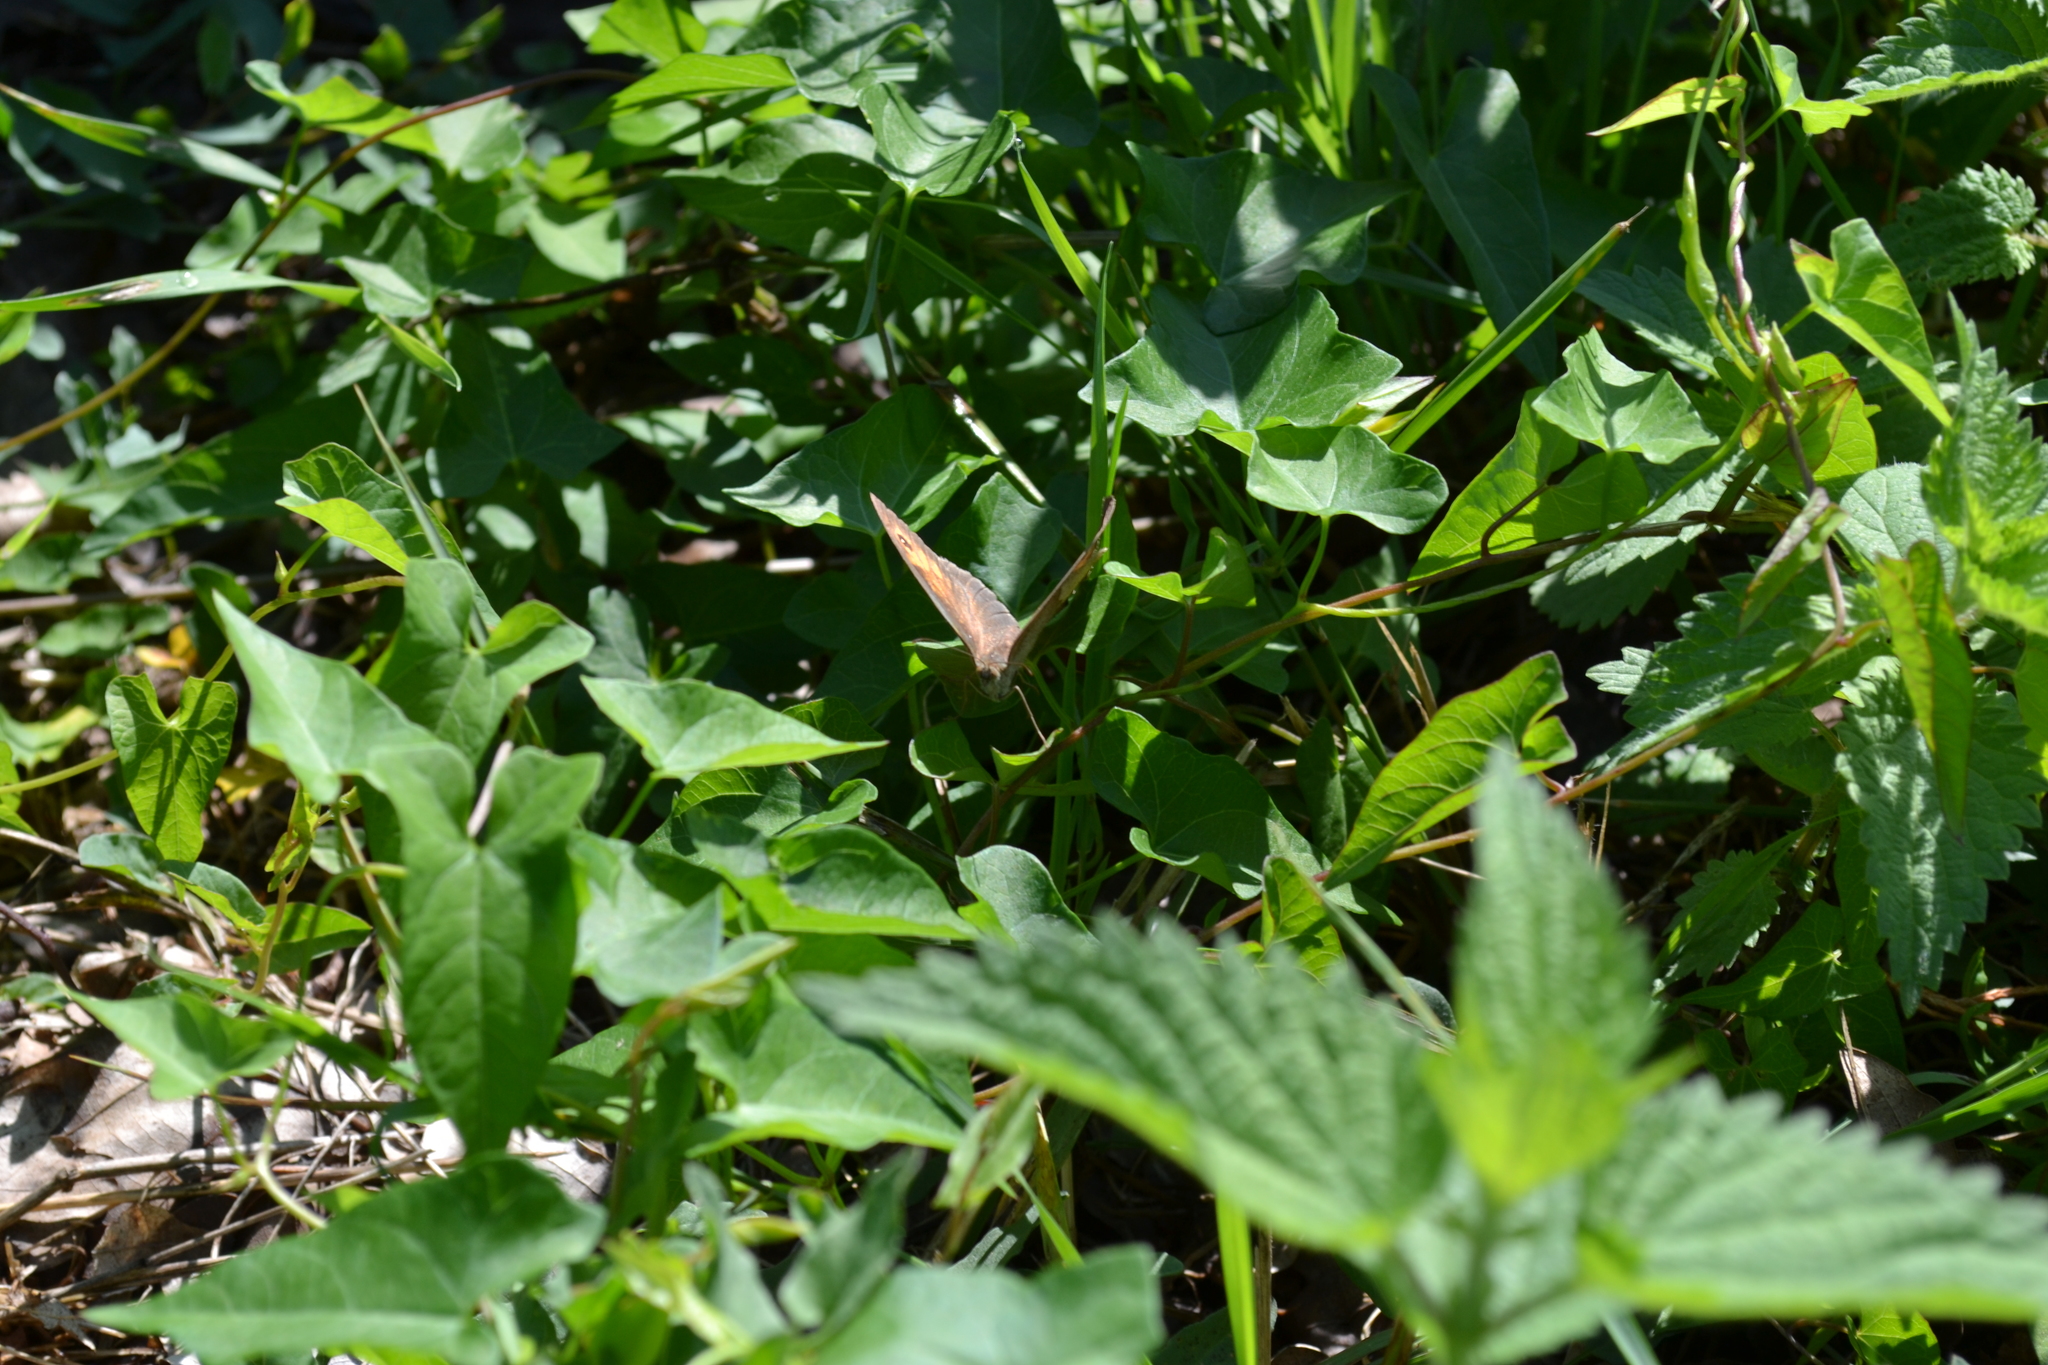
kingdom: Animalia
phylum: Arthropoda
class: Insecta
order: Lepidoptera
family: Nymphalidae
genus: Maniola
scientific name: Maniola jurtina
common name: Meadow brown
